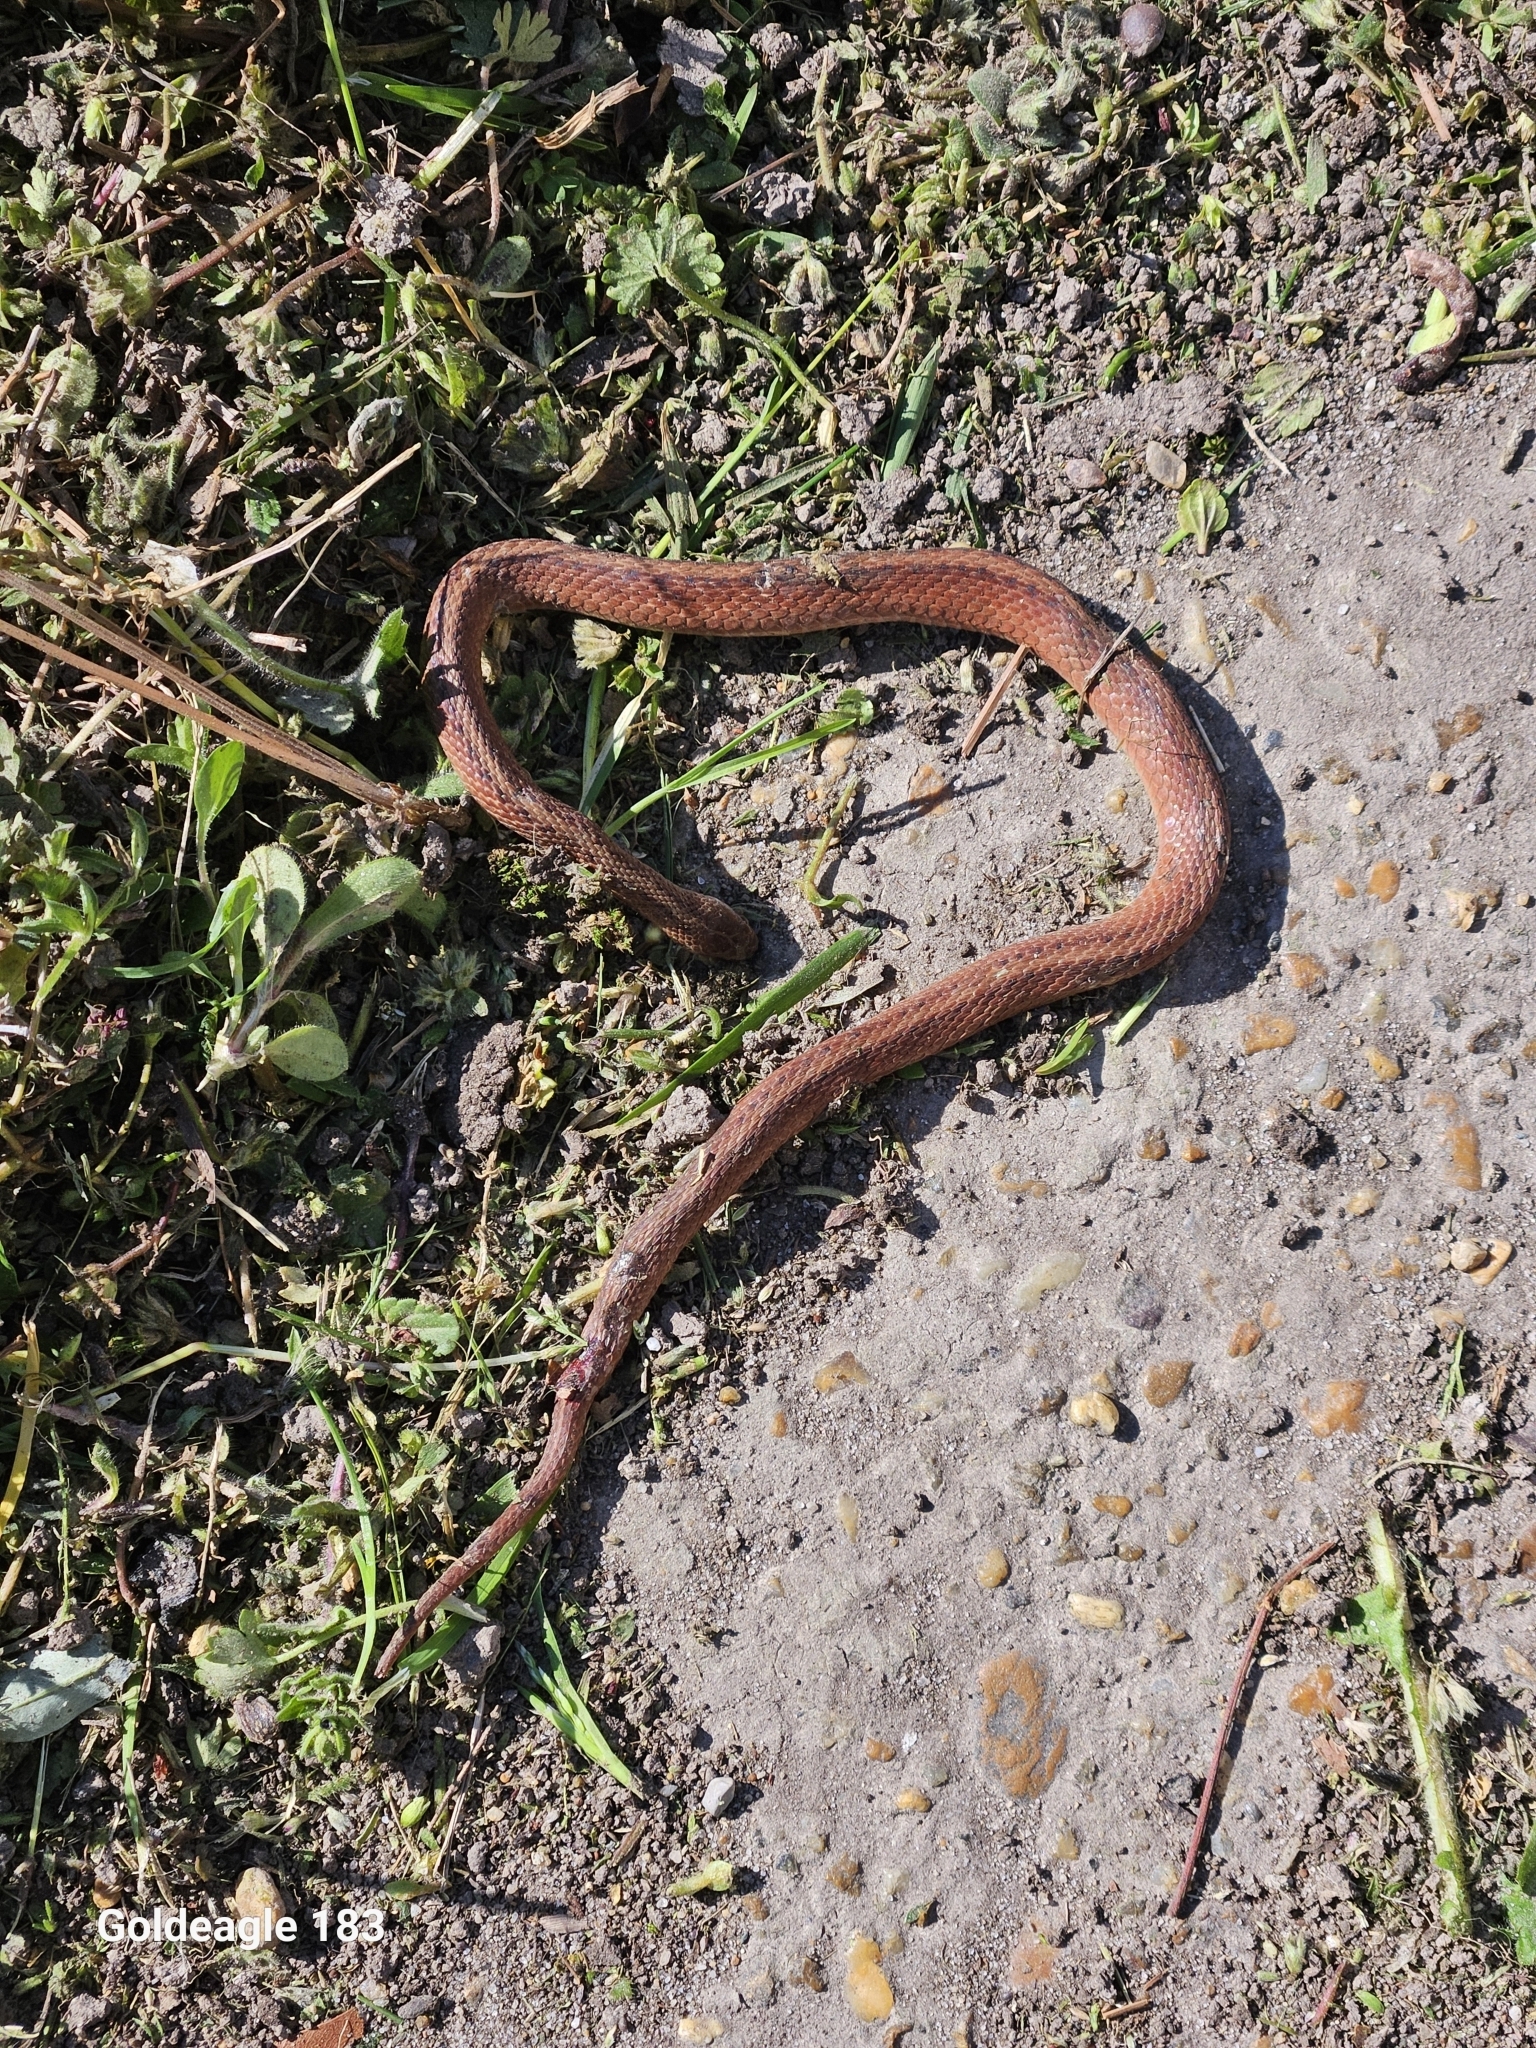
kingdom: Animalia
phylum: Chordata
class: Squamata
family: Colubridae
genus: Storeria
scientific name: Storeria dekayi
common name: (dekay’s) brown snake
